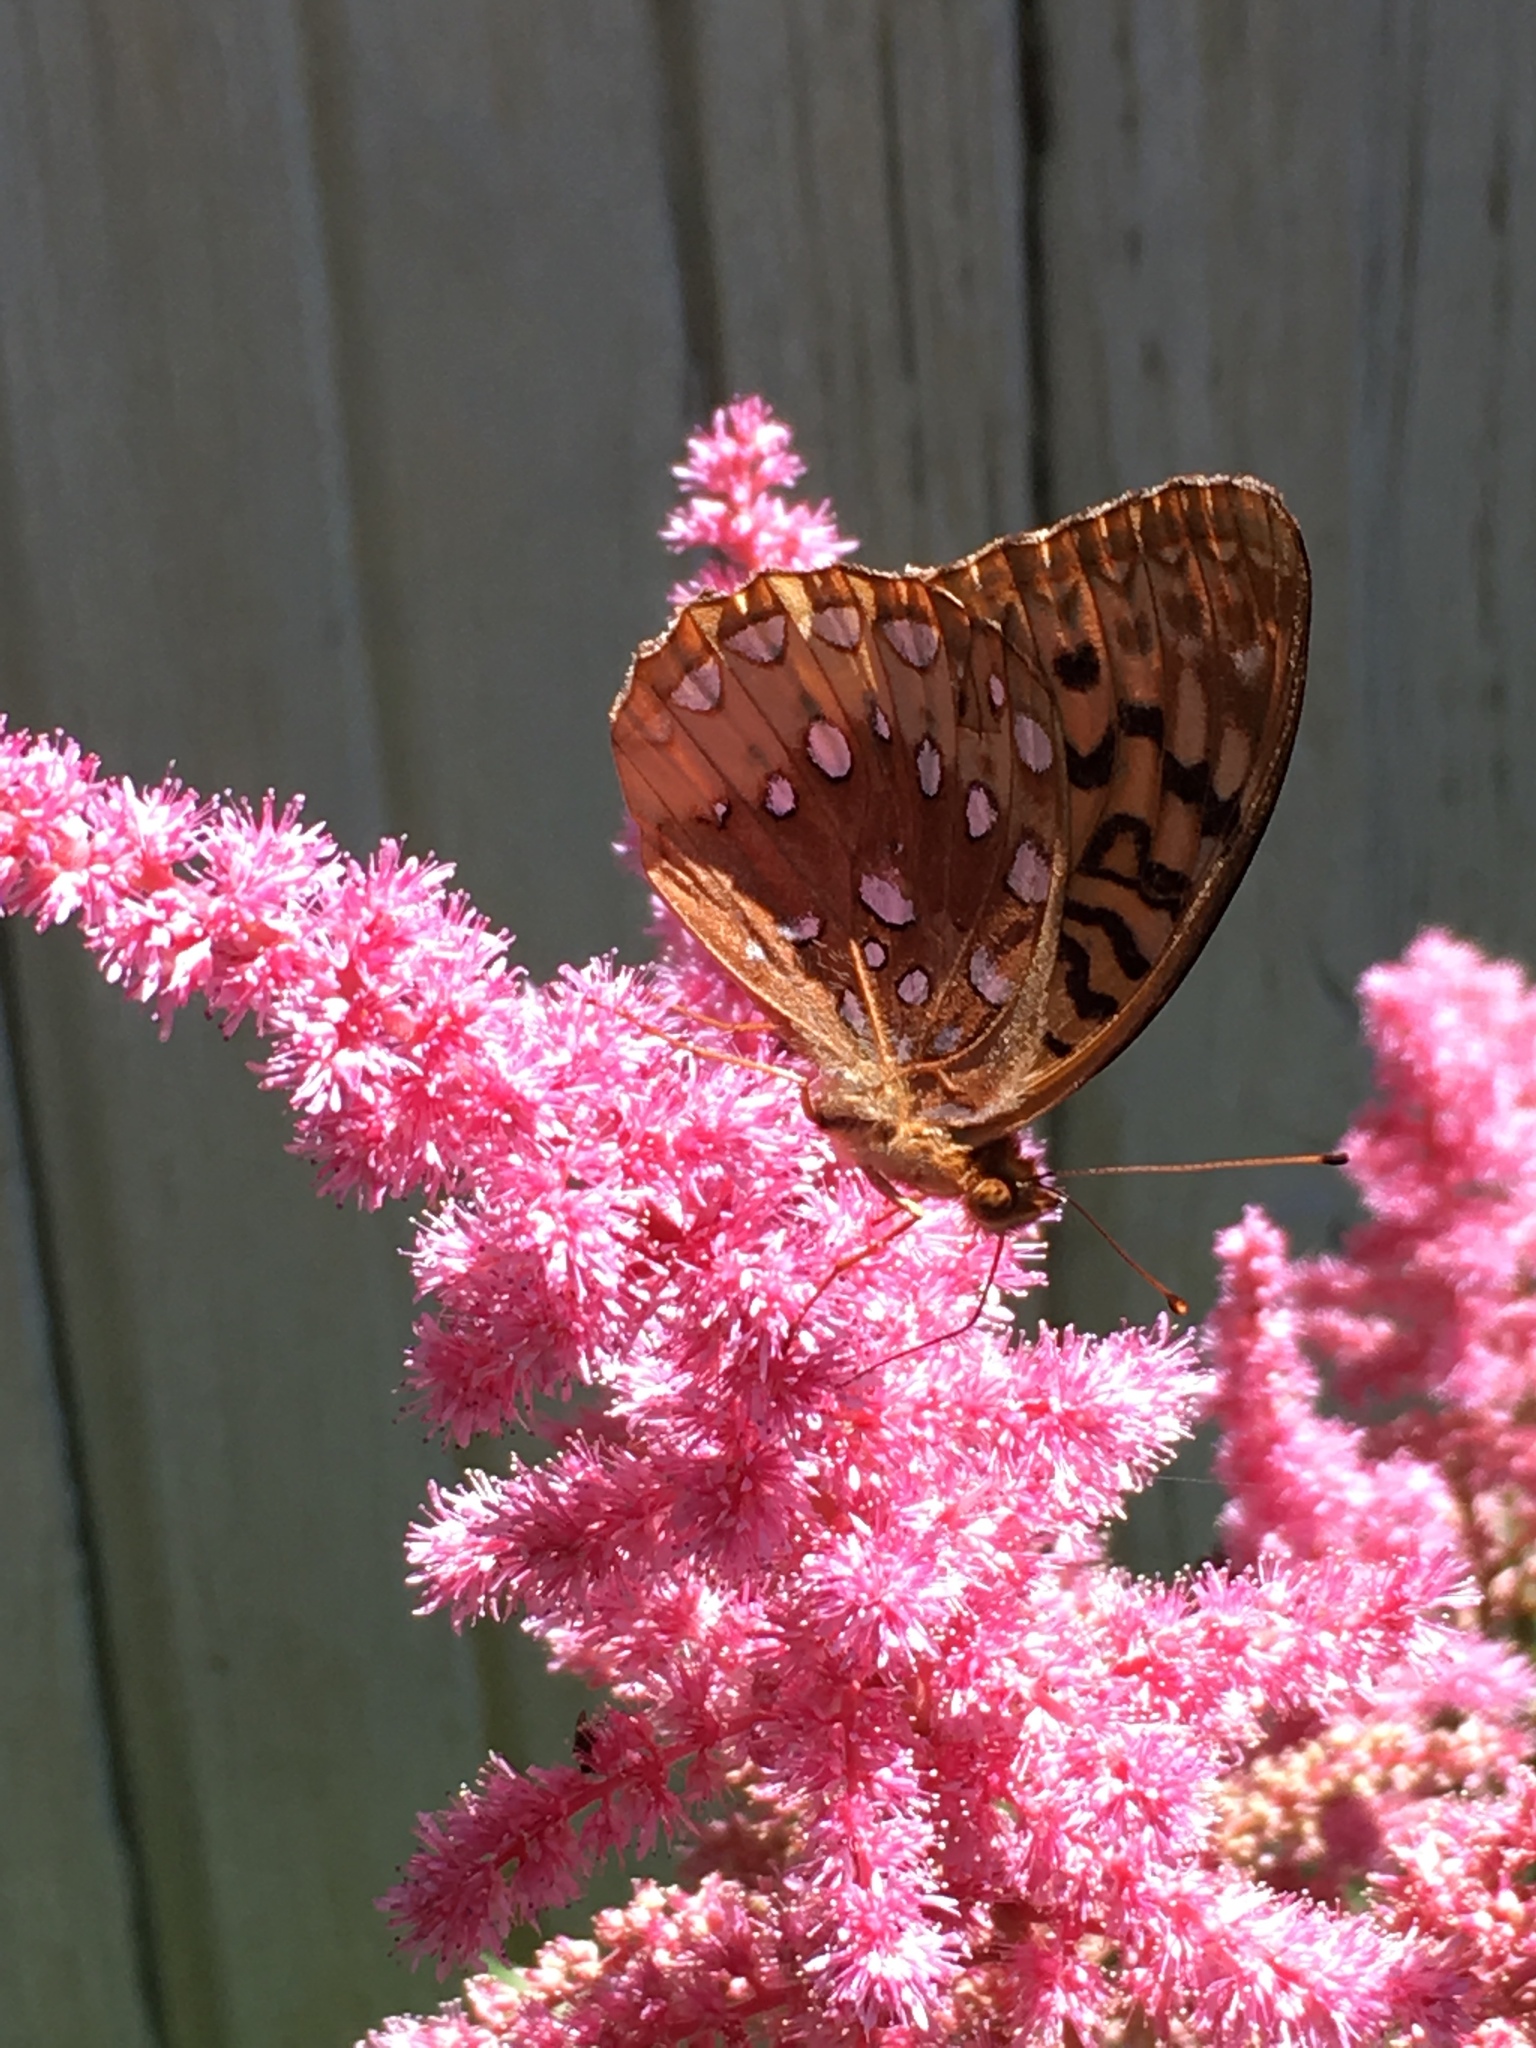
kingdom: Animalia
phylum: Arthropoda
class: Insecta
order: Lepidoptera
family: Nymphalidae
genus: Speyeria
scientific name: Speyeria cybele
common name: Great spangled fritillary
